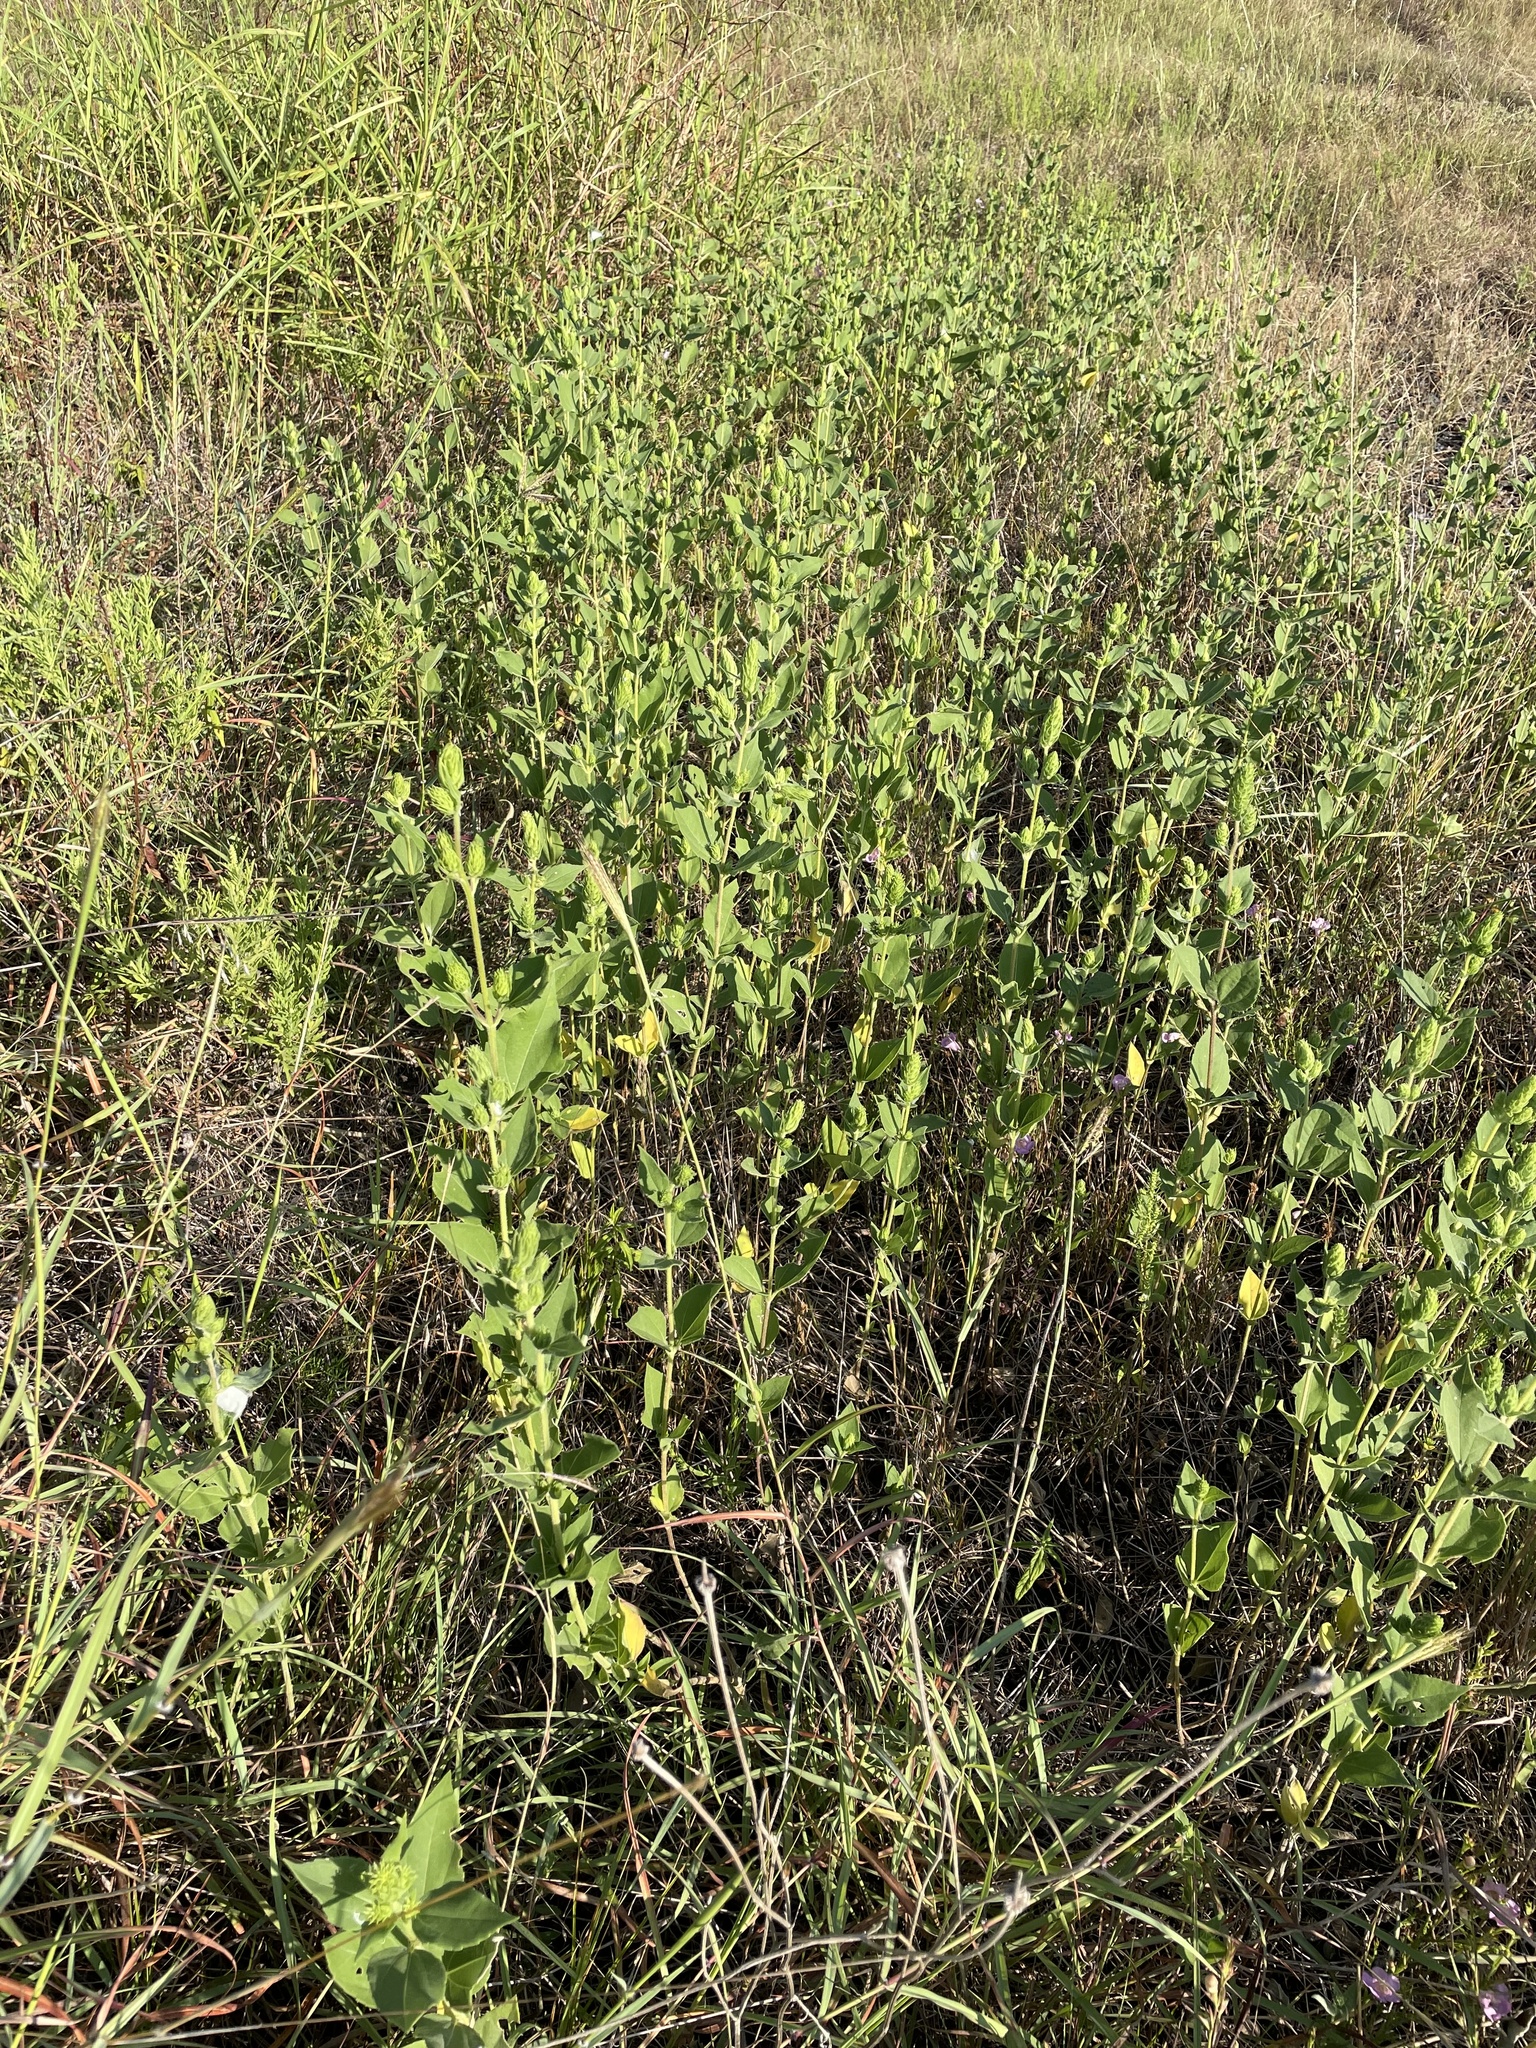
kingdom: Plantae
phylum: Tracheophyta
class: Magnoliopsida
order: Asterales
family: Asteraceae
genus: Iva
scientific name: Iva annua
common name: Marsh-elder
